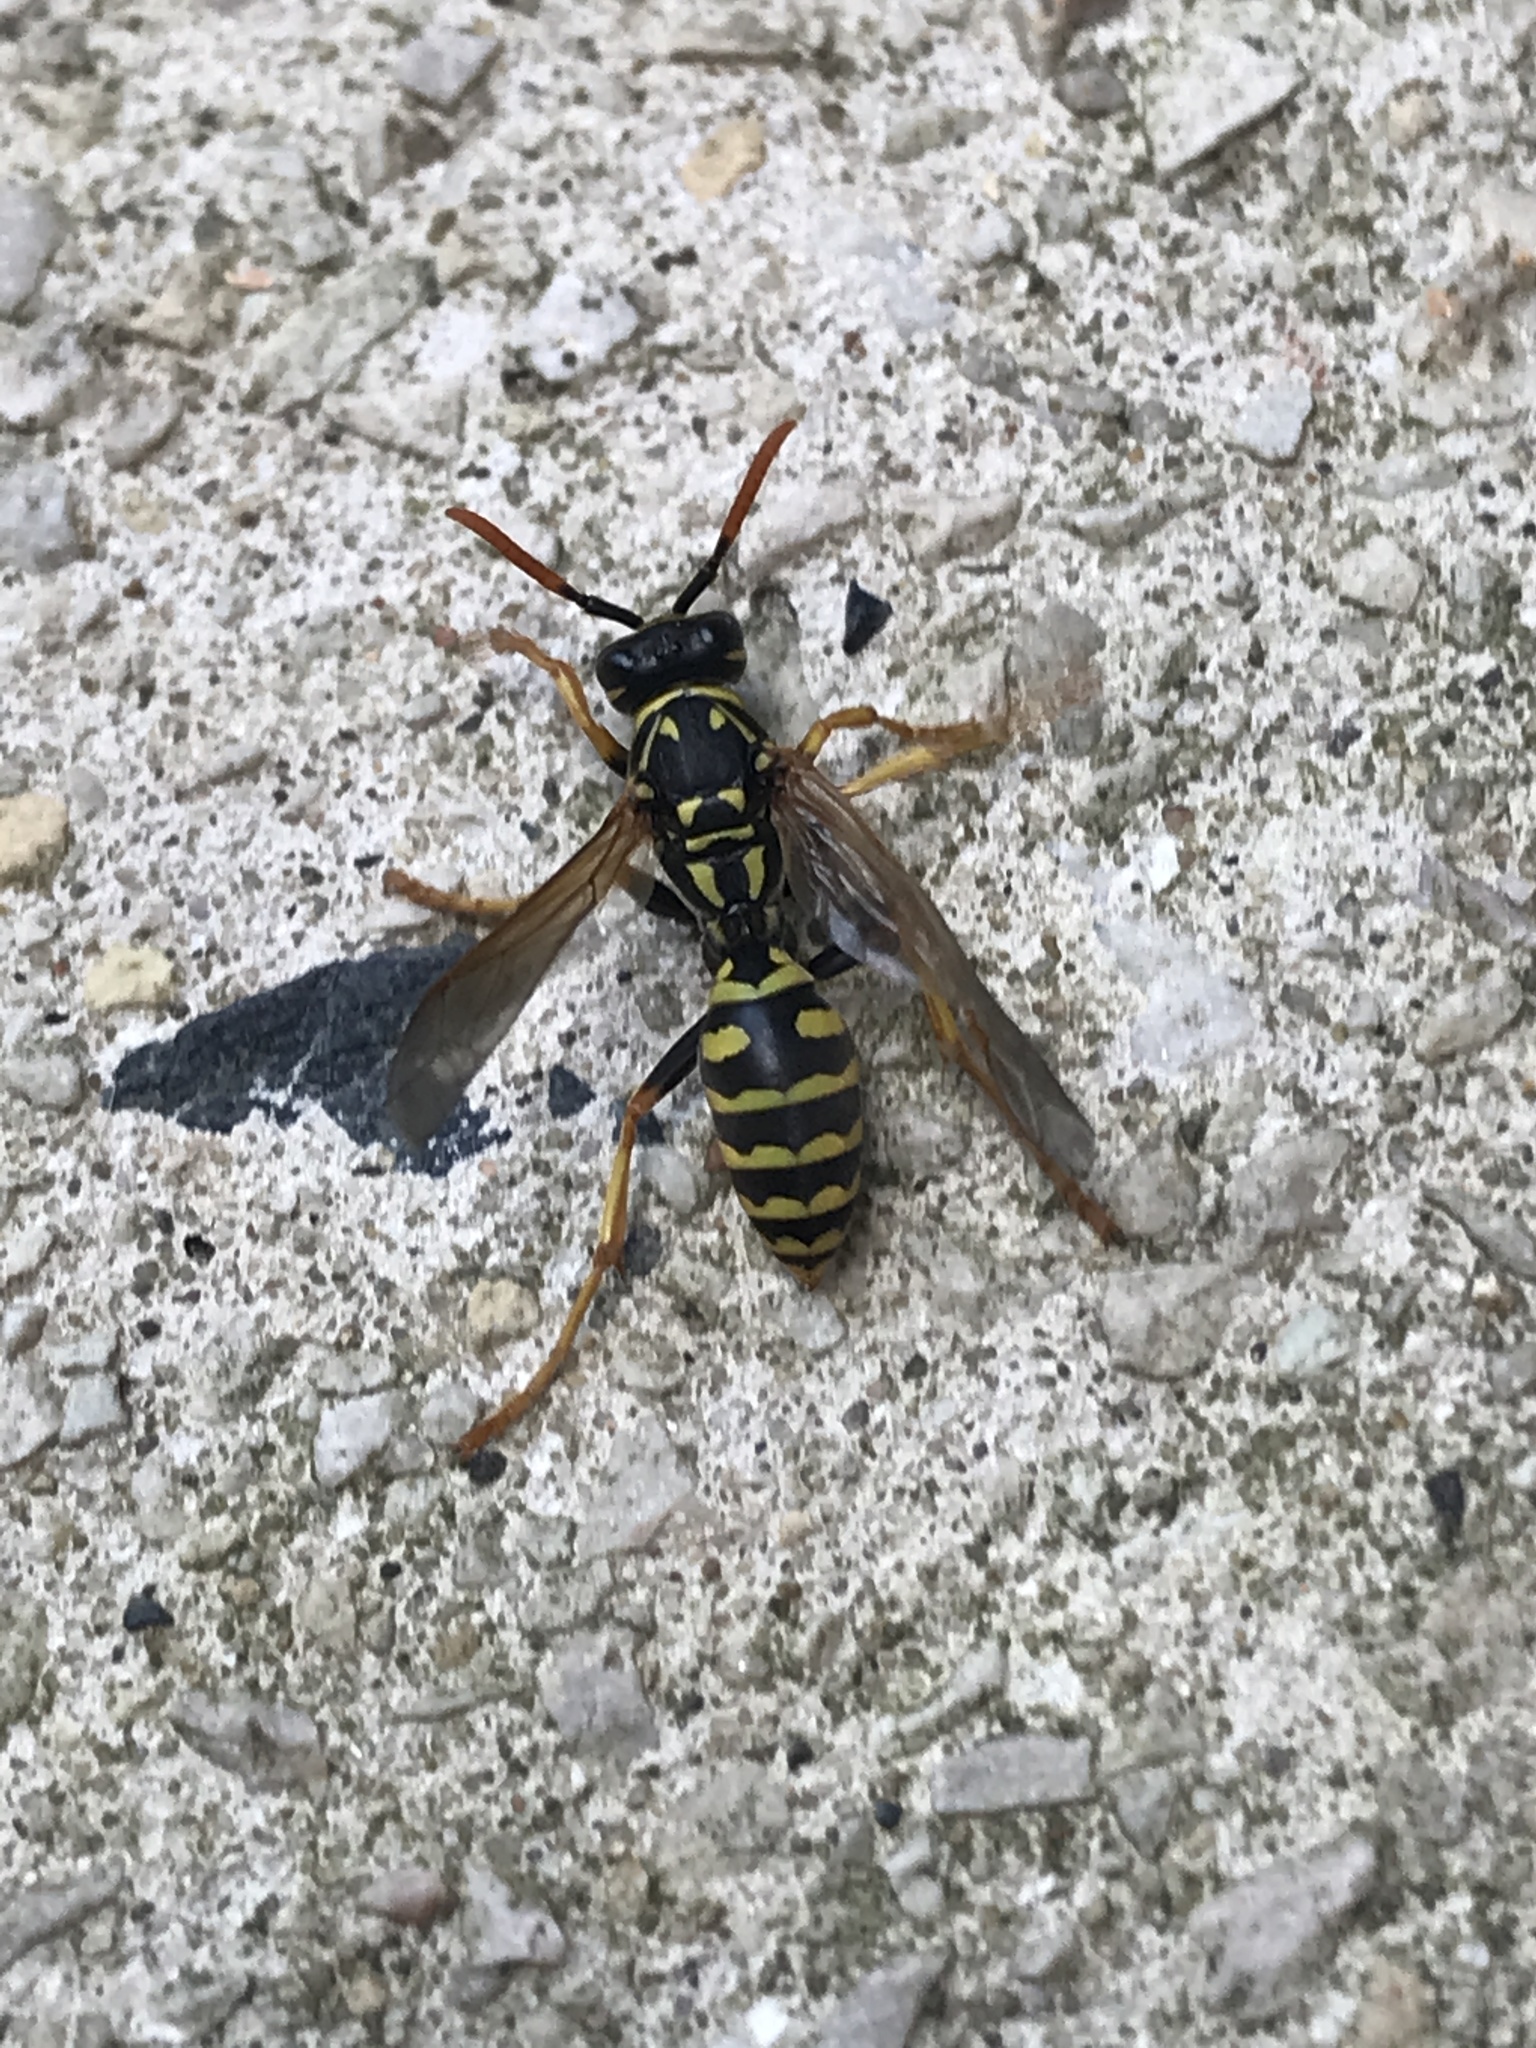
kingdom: Animalia
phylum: Arthropoda
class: Insecta
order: Hymenoptera
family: Eumenidae
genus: Polistes
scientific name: Polistes dominula
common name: Paper wasp
